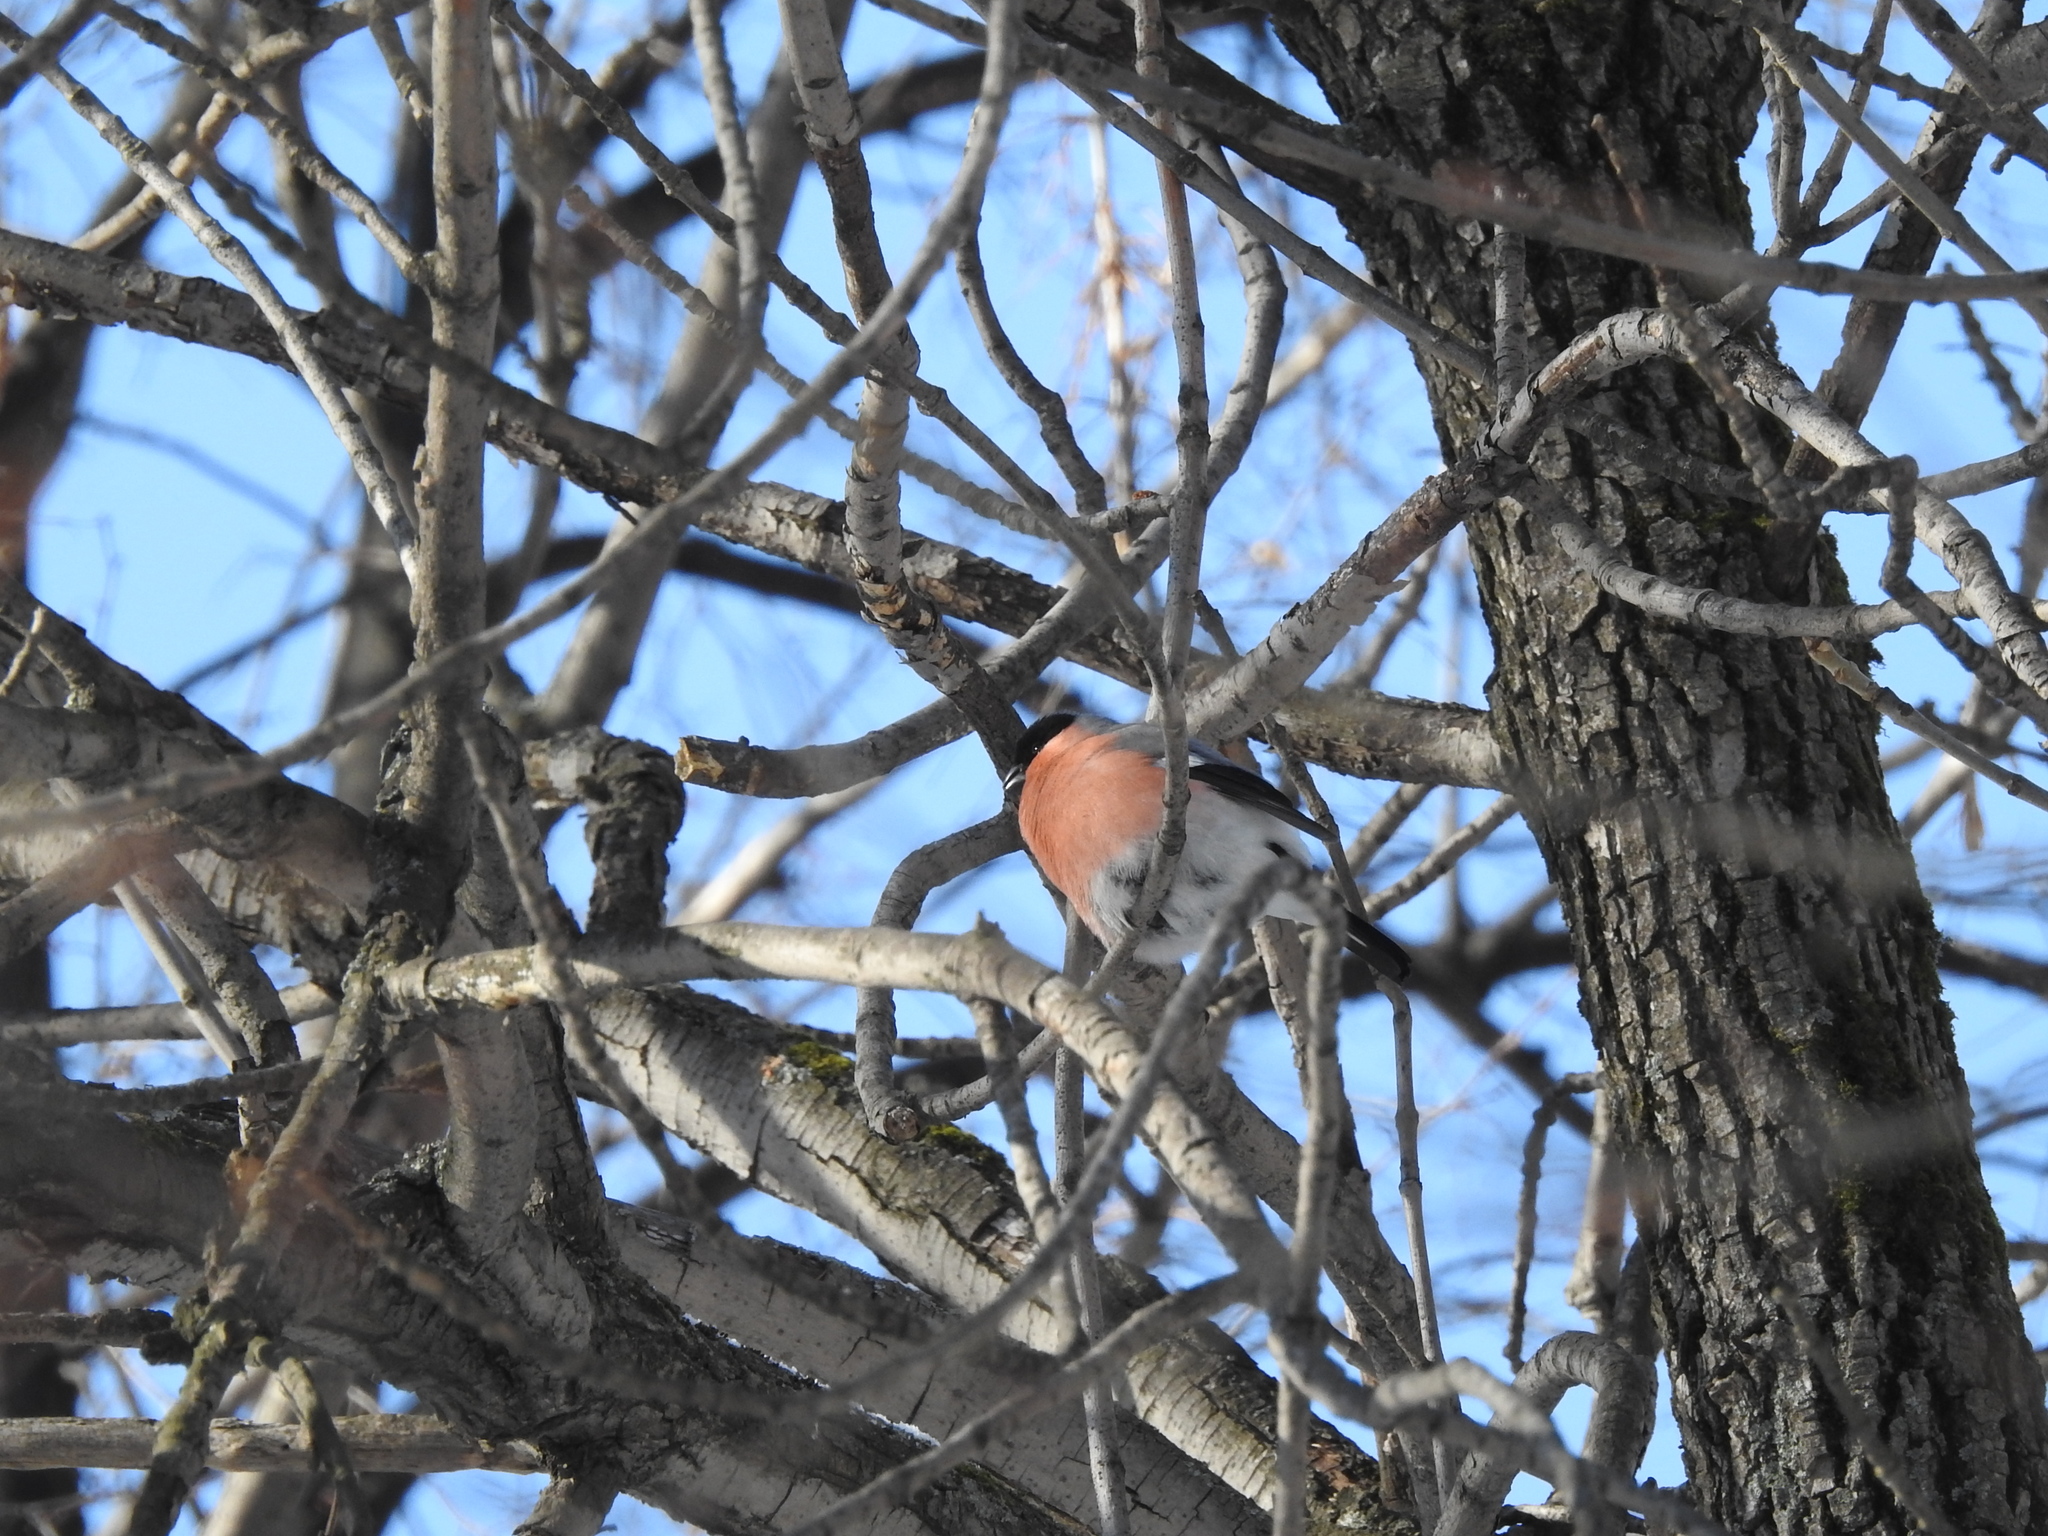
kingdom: Animalia
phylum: Chordata
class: Aves
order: Passeriformes
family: Fringillidae
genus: Pyrrhula
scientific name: Pyrrhula pyrrhula
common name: Eurasian bullfinch
